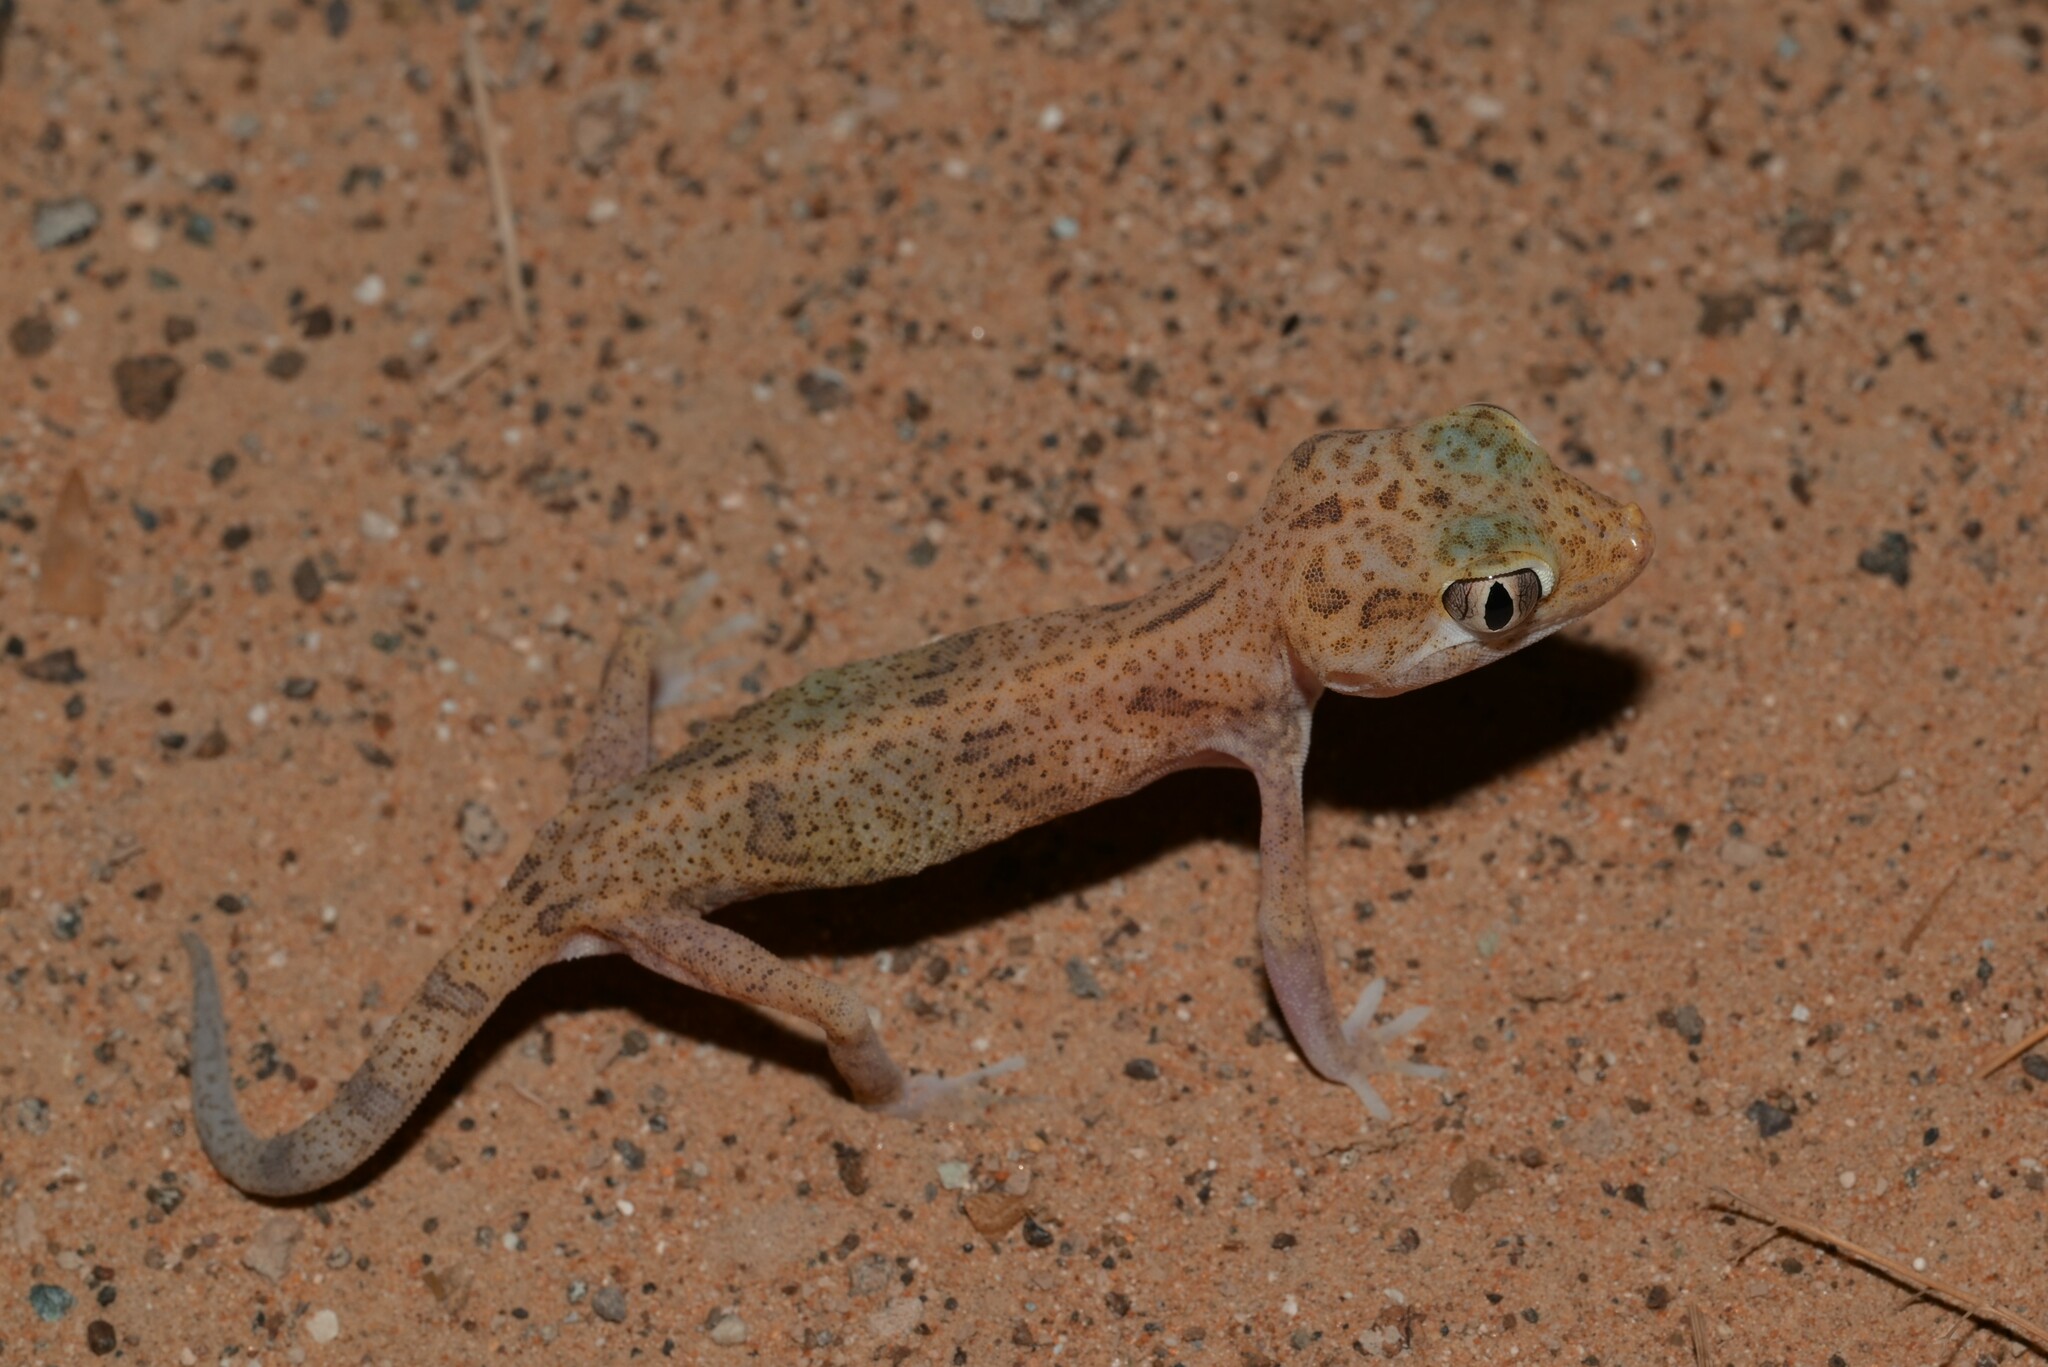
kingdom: Animalia
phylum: Chordata
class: Squamata
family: Gekkonidae
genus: Stenodactylus
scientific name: Stenodactylus leptocosymbotes
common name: Eastern sand gecko
